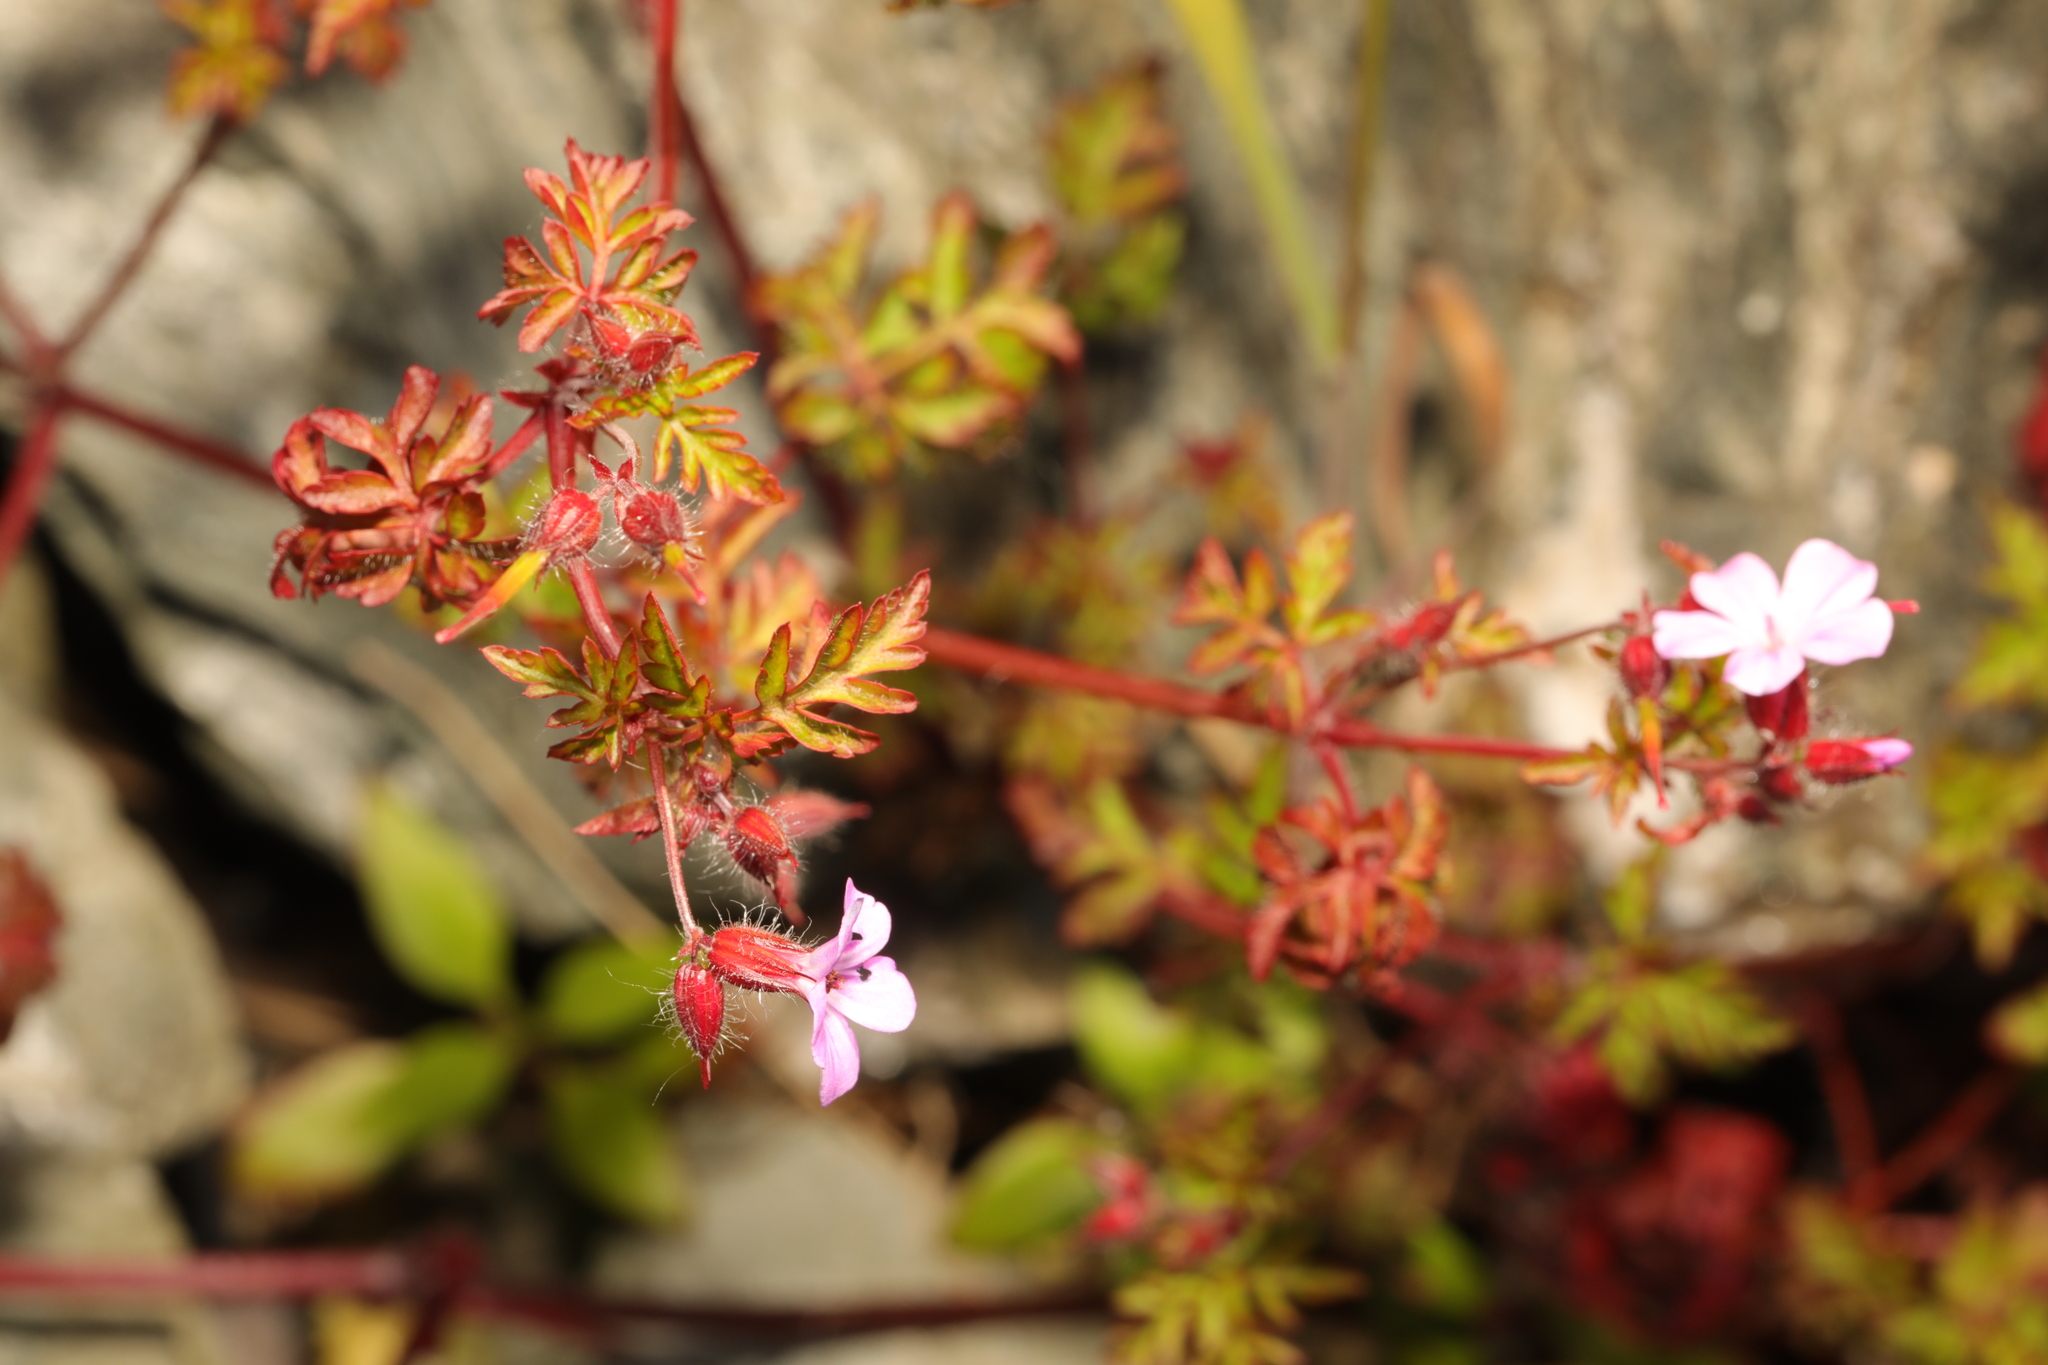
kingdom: Plantae
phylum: Tracheophyta
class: Magnoliopsida
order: Geraniales
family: Geraniaceae
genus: Geranium
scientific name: Geranium robertianum
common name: Herb-robert
